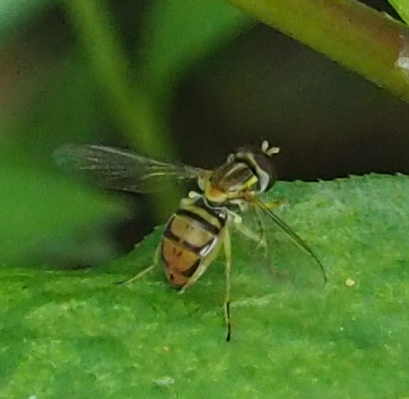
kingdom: Animalia
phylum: Arthropoda
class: Insecta
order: Diptera
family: Syrphidae
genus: Toxomerus
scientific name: Toxomerus marginatus
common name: Syrphid fly
